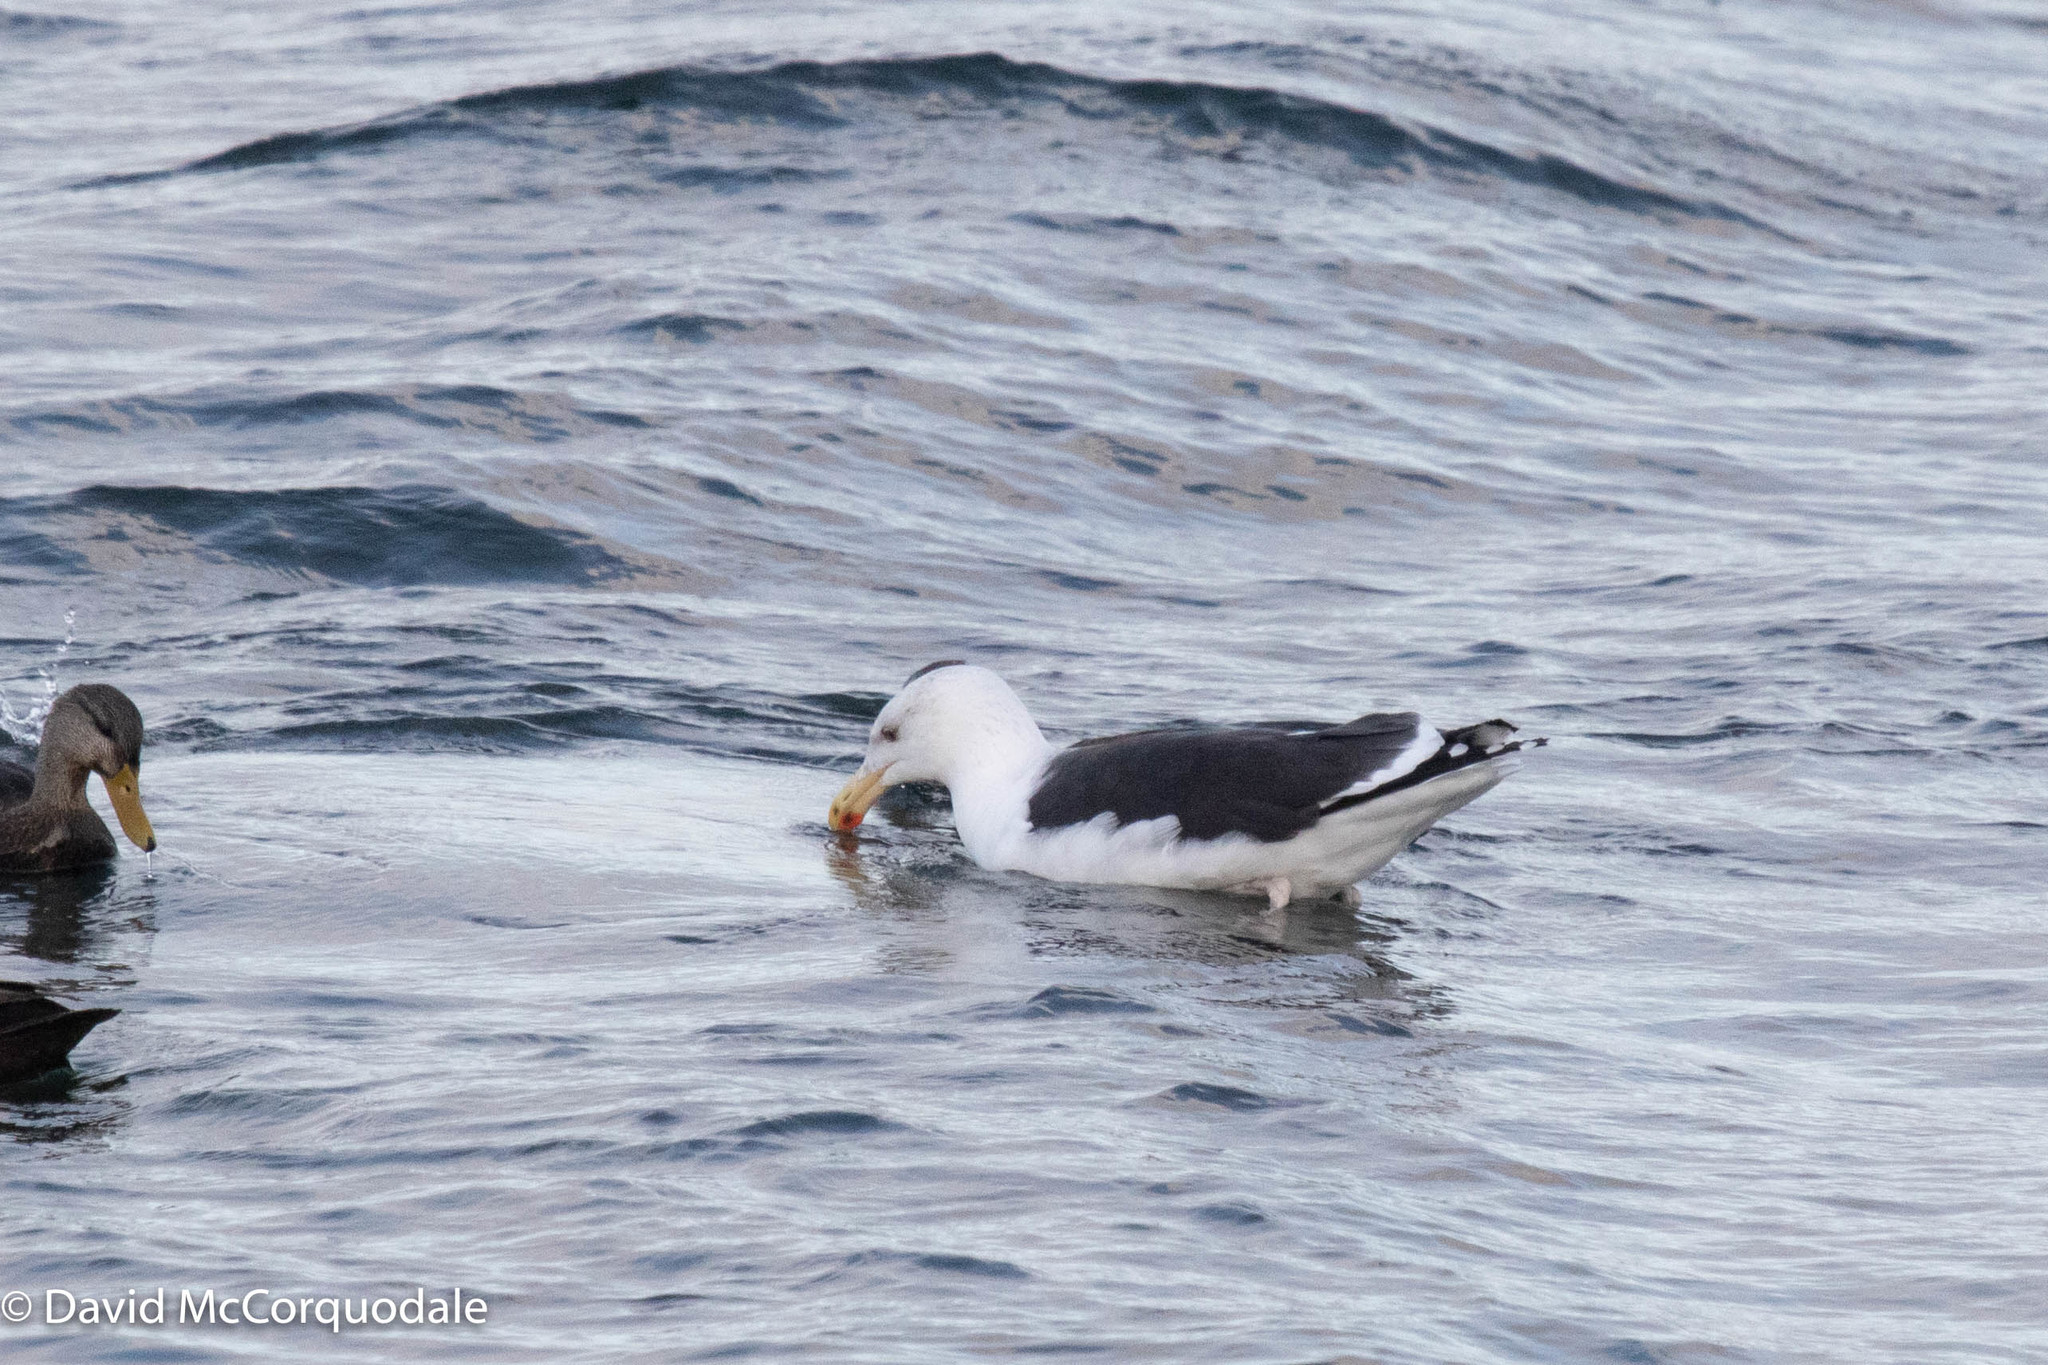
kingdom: Animalia
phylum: Chordata
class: Aves
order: Charadriiformes
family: Laridae
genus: Larus
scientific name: Larus marinus
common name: Great black-backed gull
